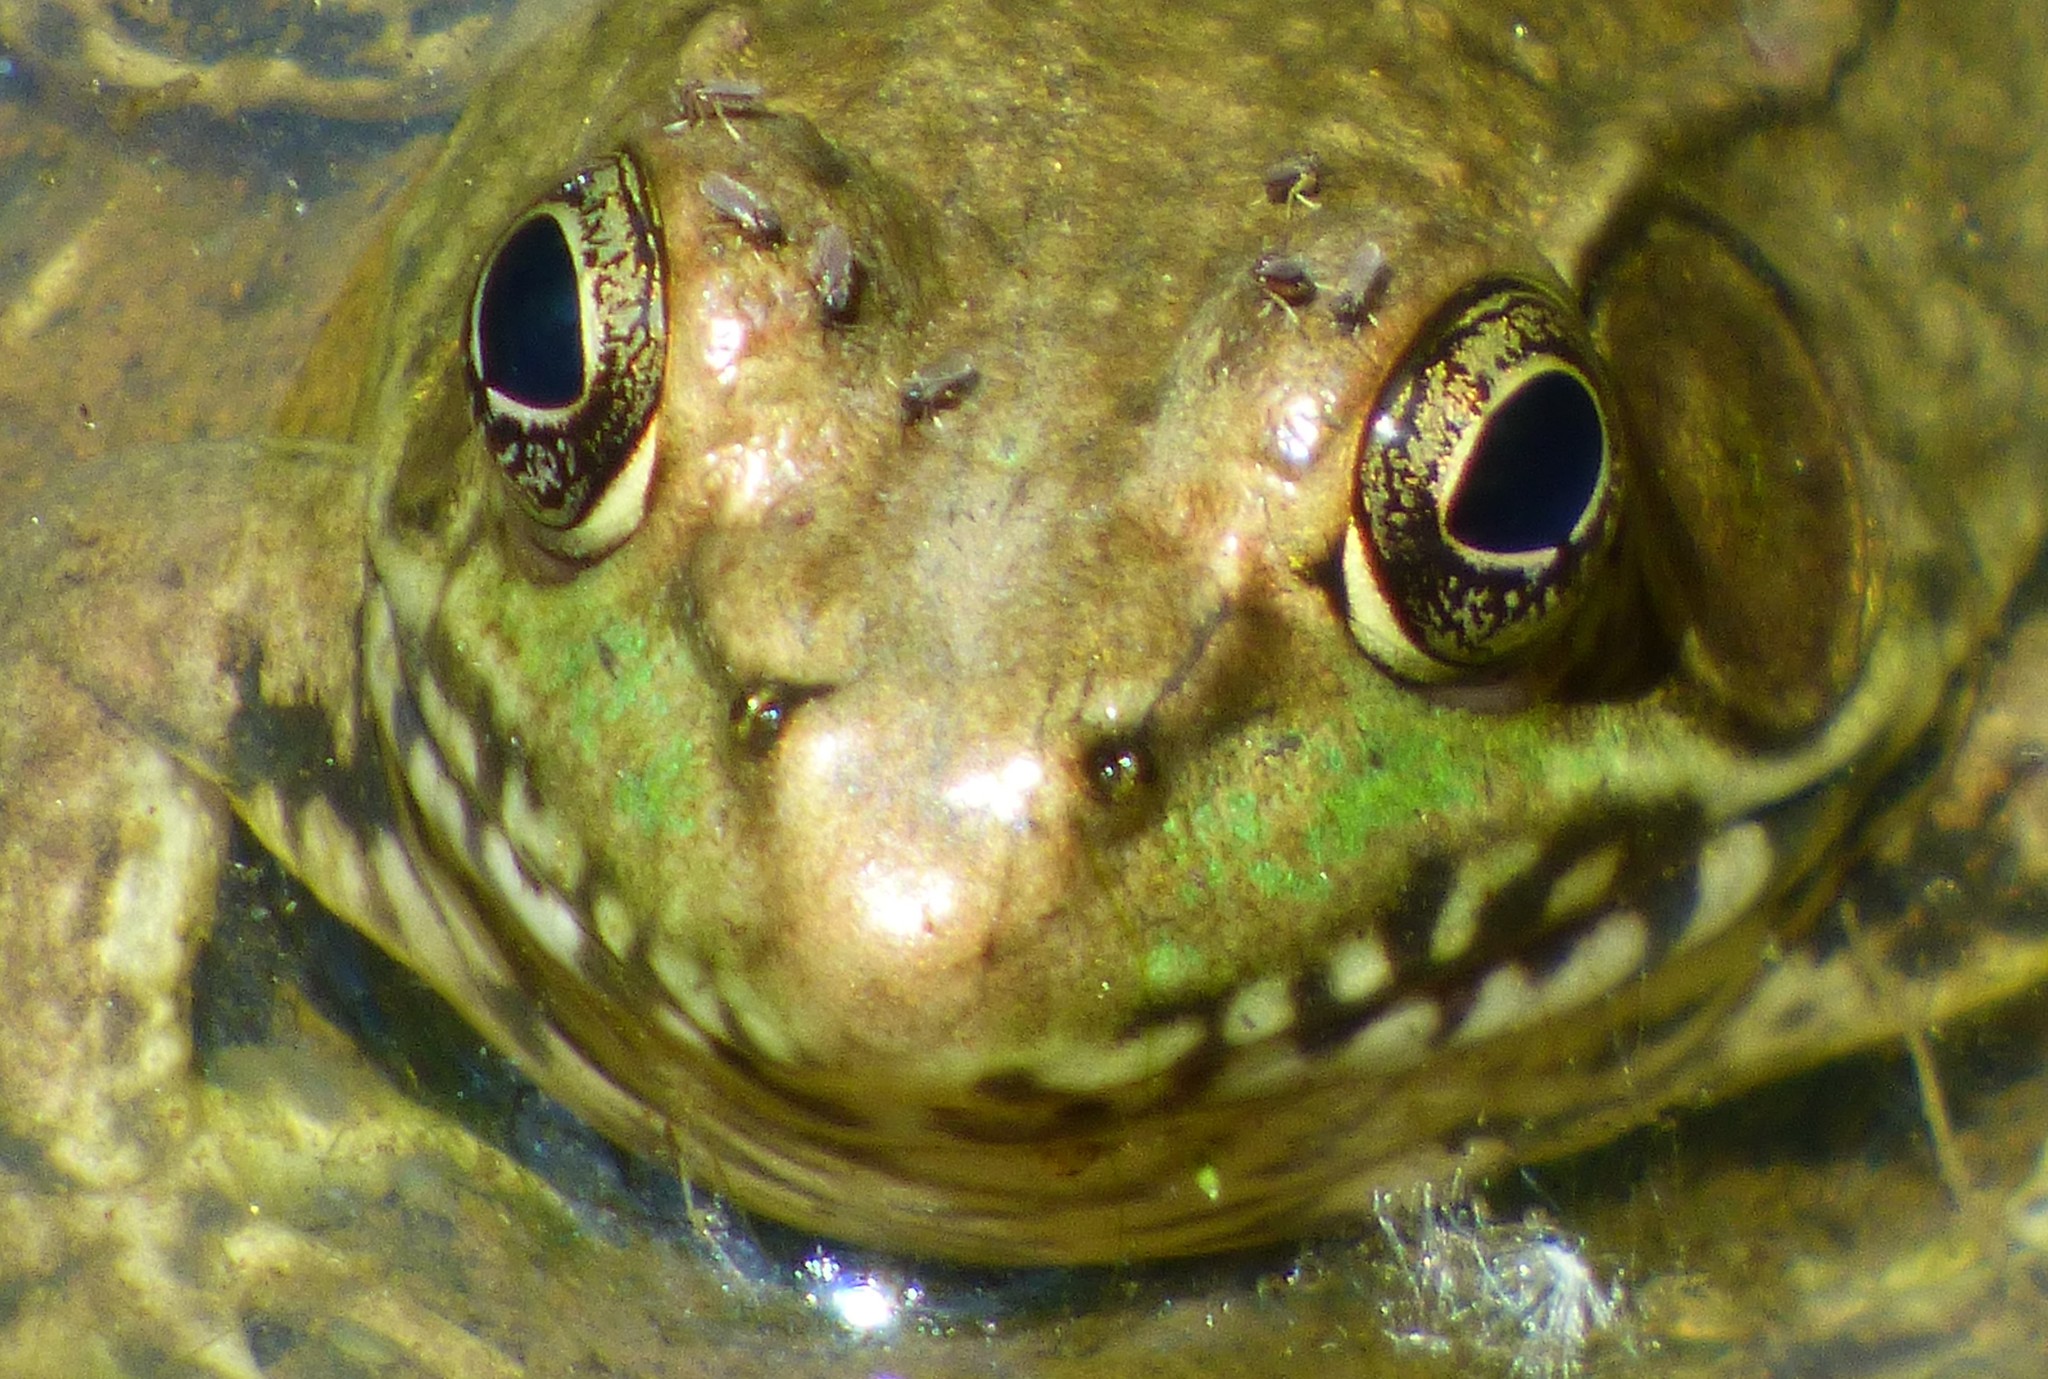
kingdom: Animalia
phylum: Chordata
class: Amphibia
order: Anura
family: Ranidae
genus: Lithobates
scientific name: Lithobates clamitans
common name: Green frog
